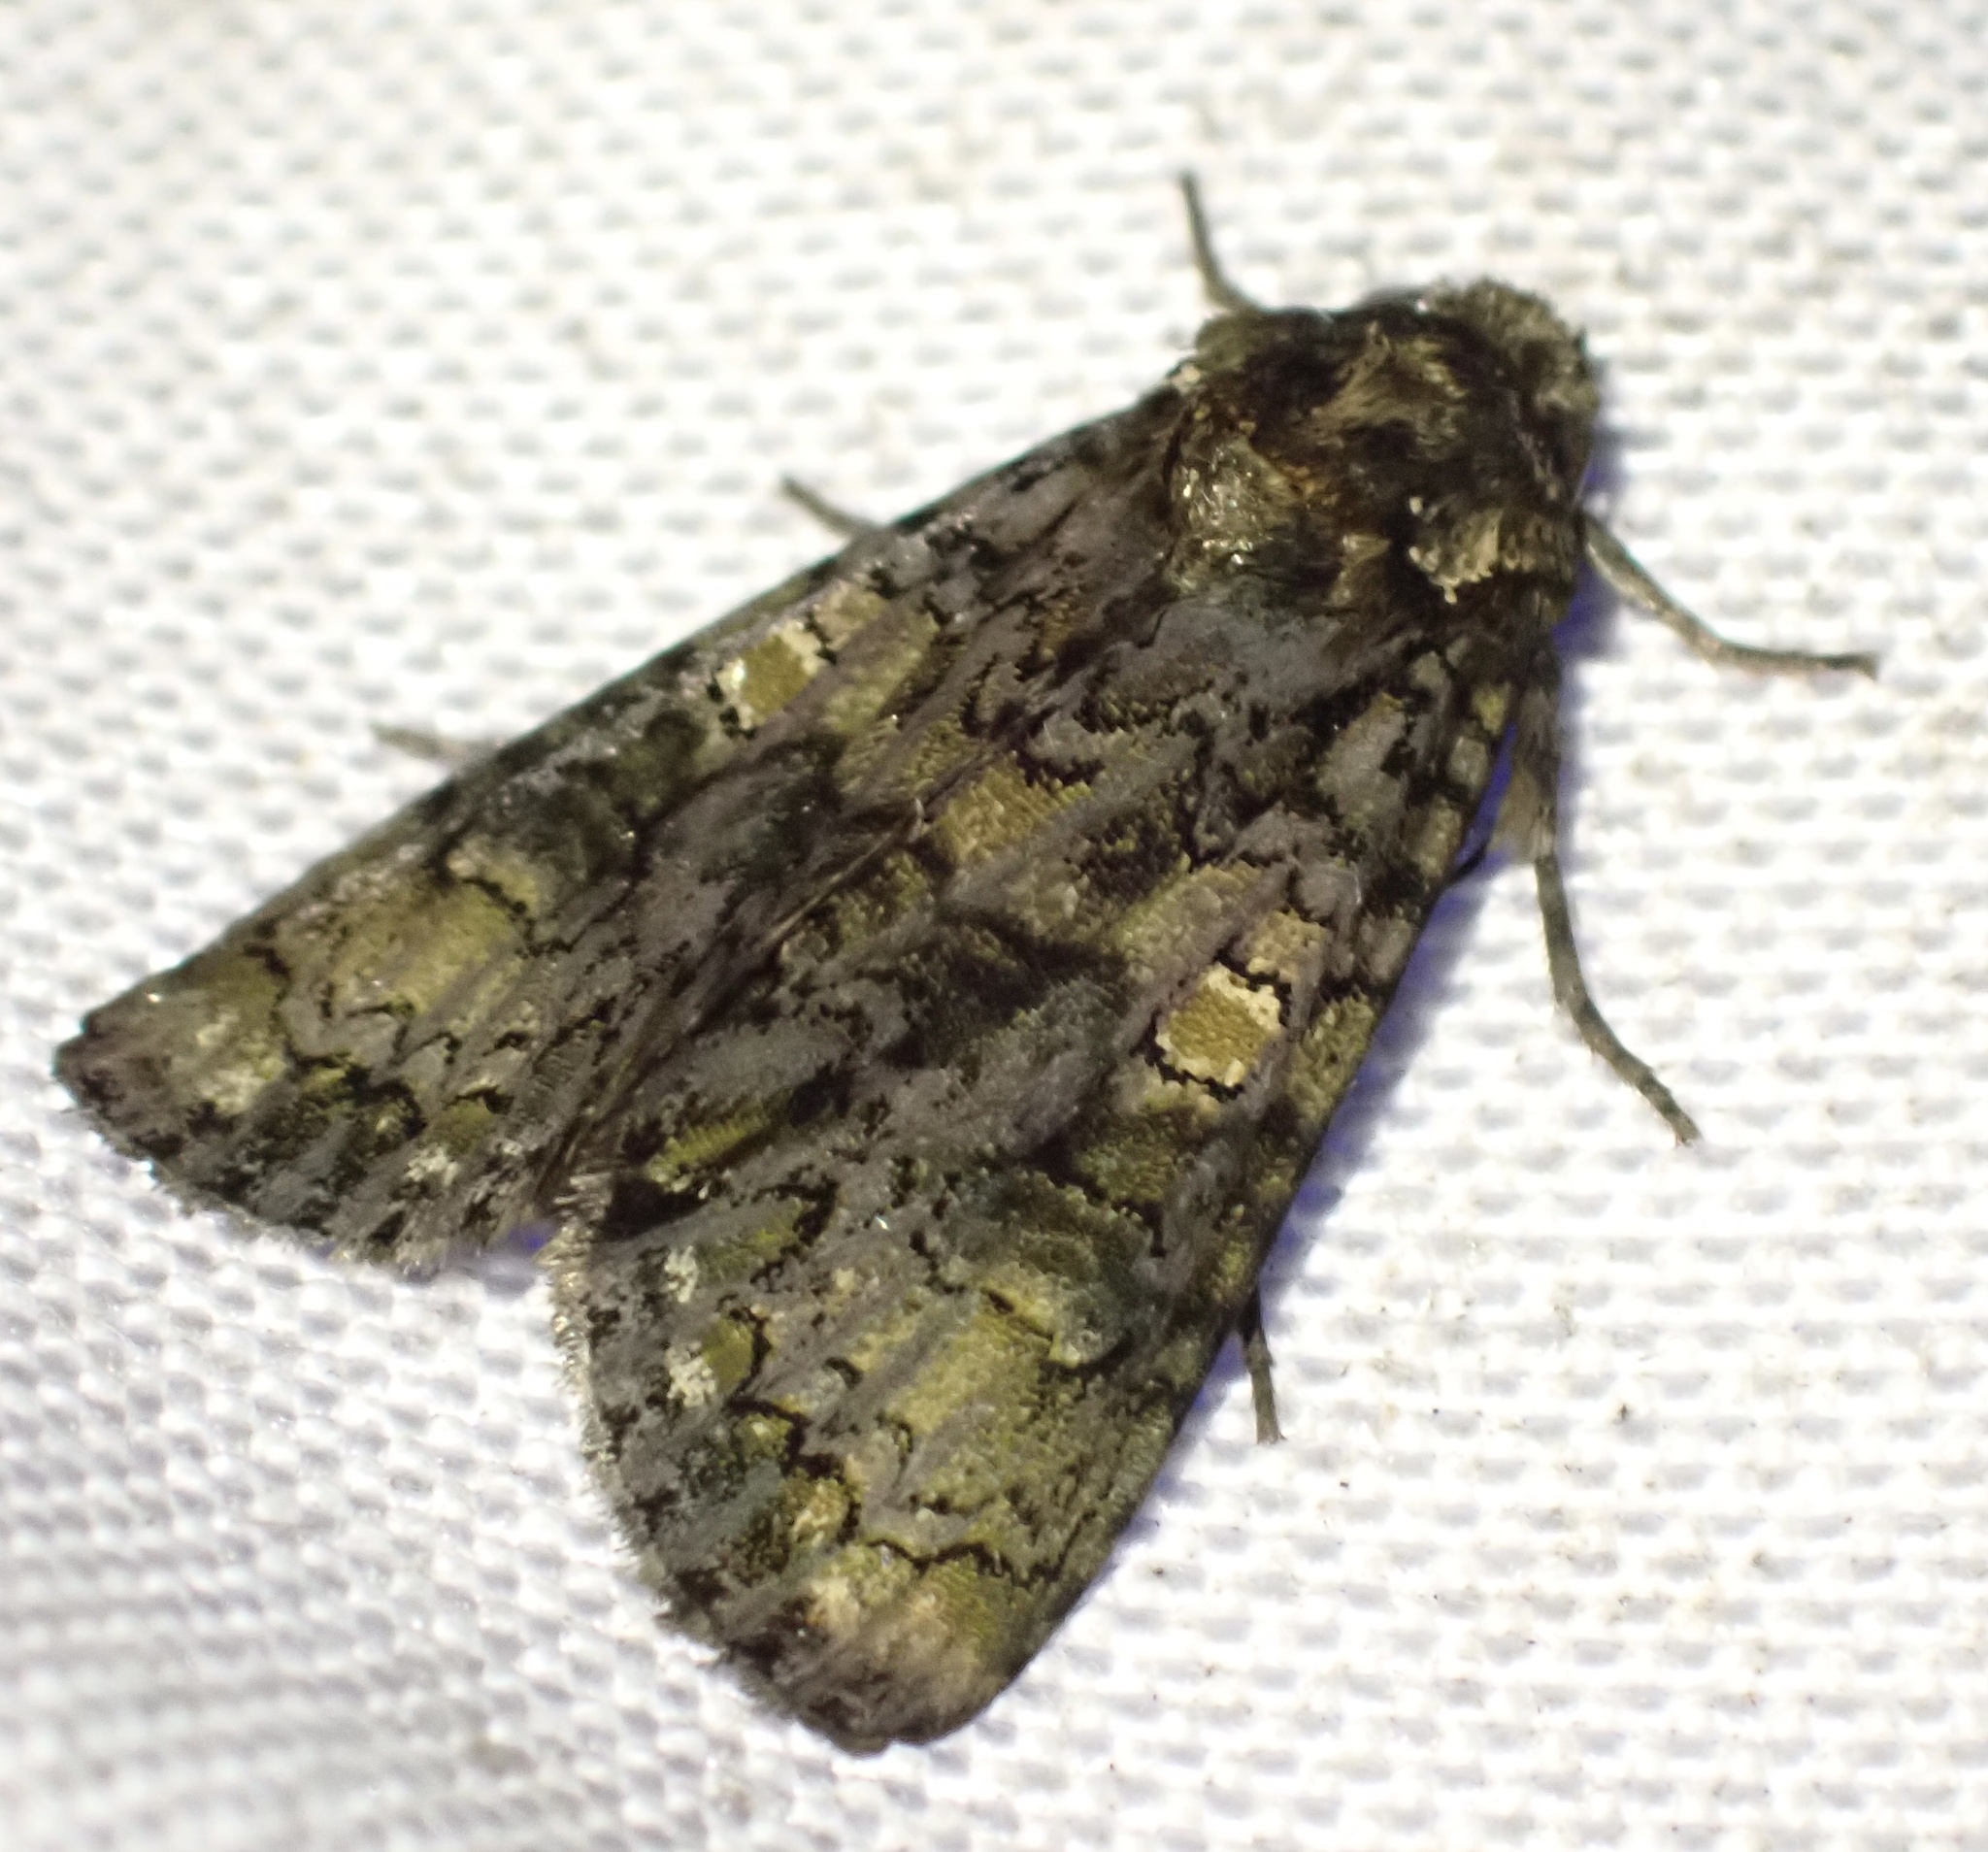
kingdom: Animalia
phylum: Arthropoda
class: Insecta
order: Lepidoptera
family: Noctuidae
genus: Craniophora
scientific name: Craniophora ligustri
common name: Coronet
